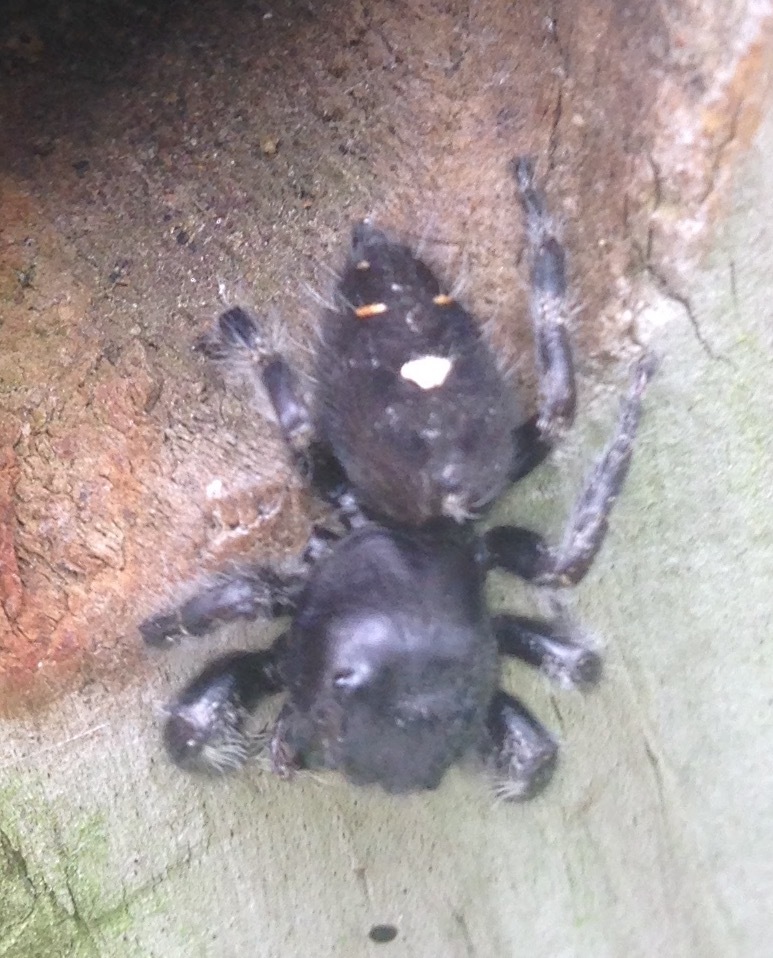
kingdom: Animalia
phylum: Arthropoda
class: Arachnida
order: Araneae
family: Salticidae
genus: Phidippus
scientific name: Phidippus audax
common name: Bold jumper
